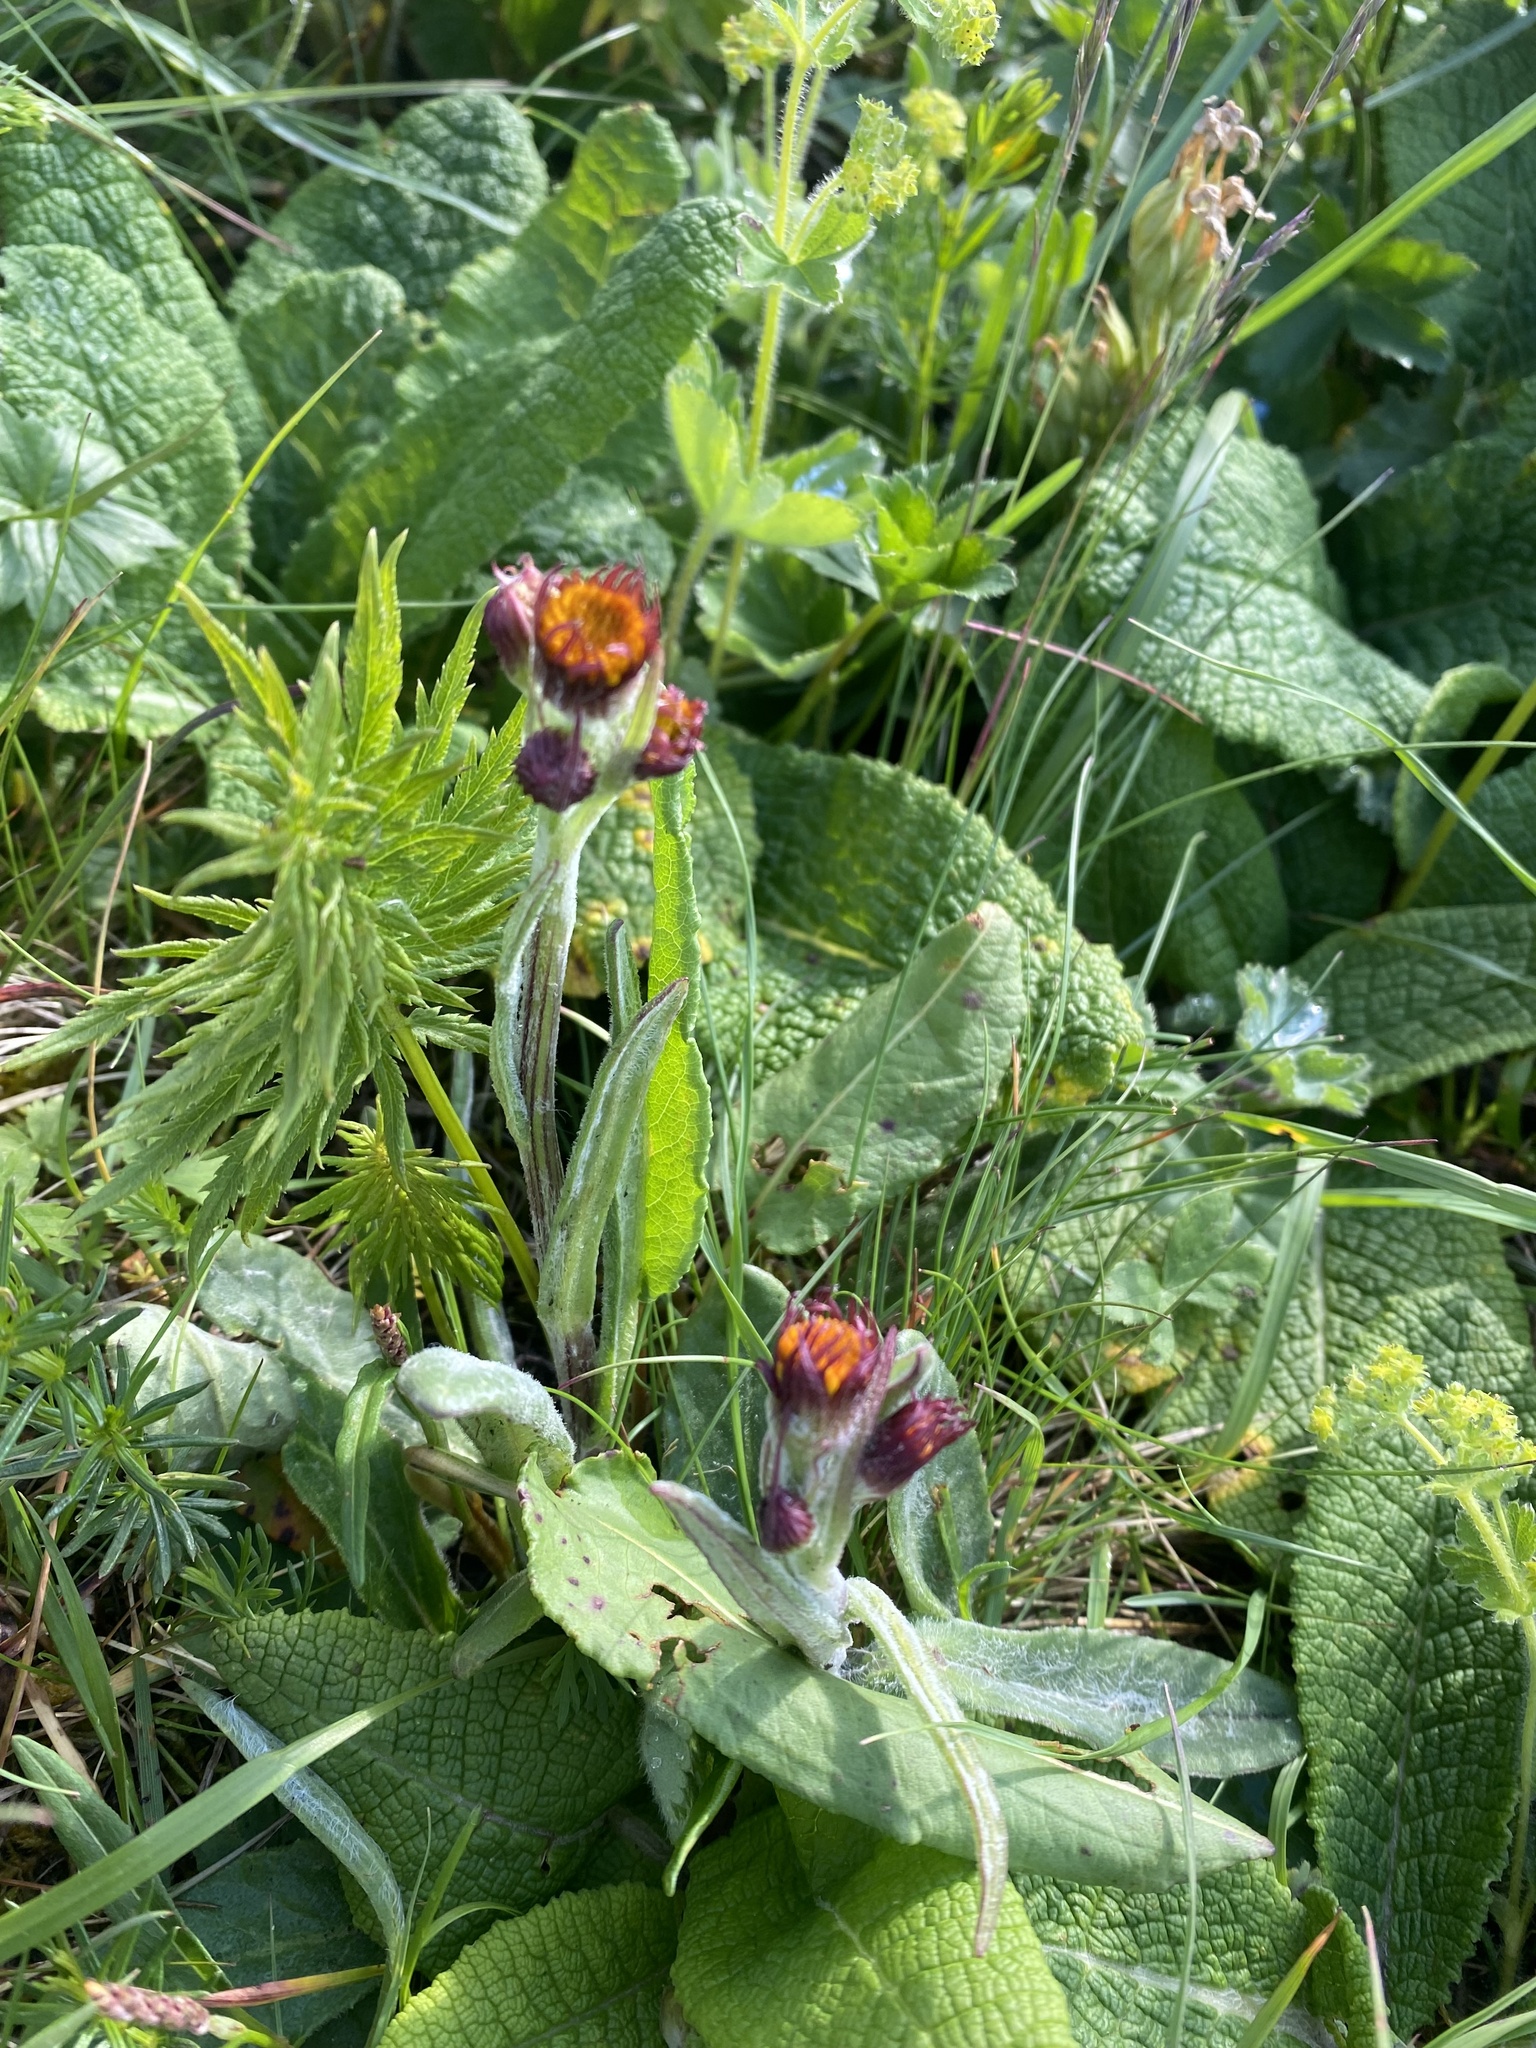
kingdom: Plantae
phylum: Tracheophyta
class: Magnoliopsida
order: Asterales
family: Asteraceae
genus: Tephroseris
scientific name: Tephroseris integrifolia
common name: Field fleawort
